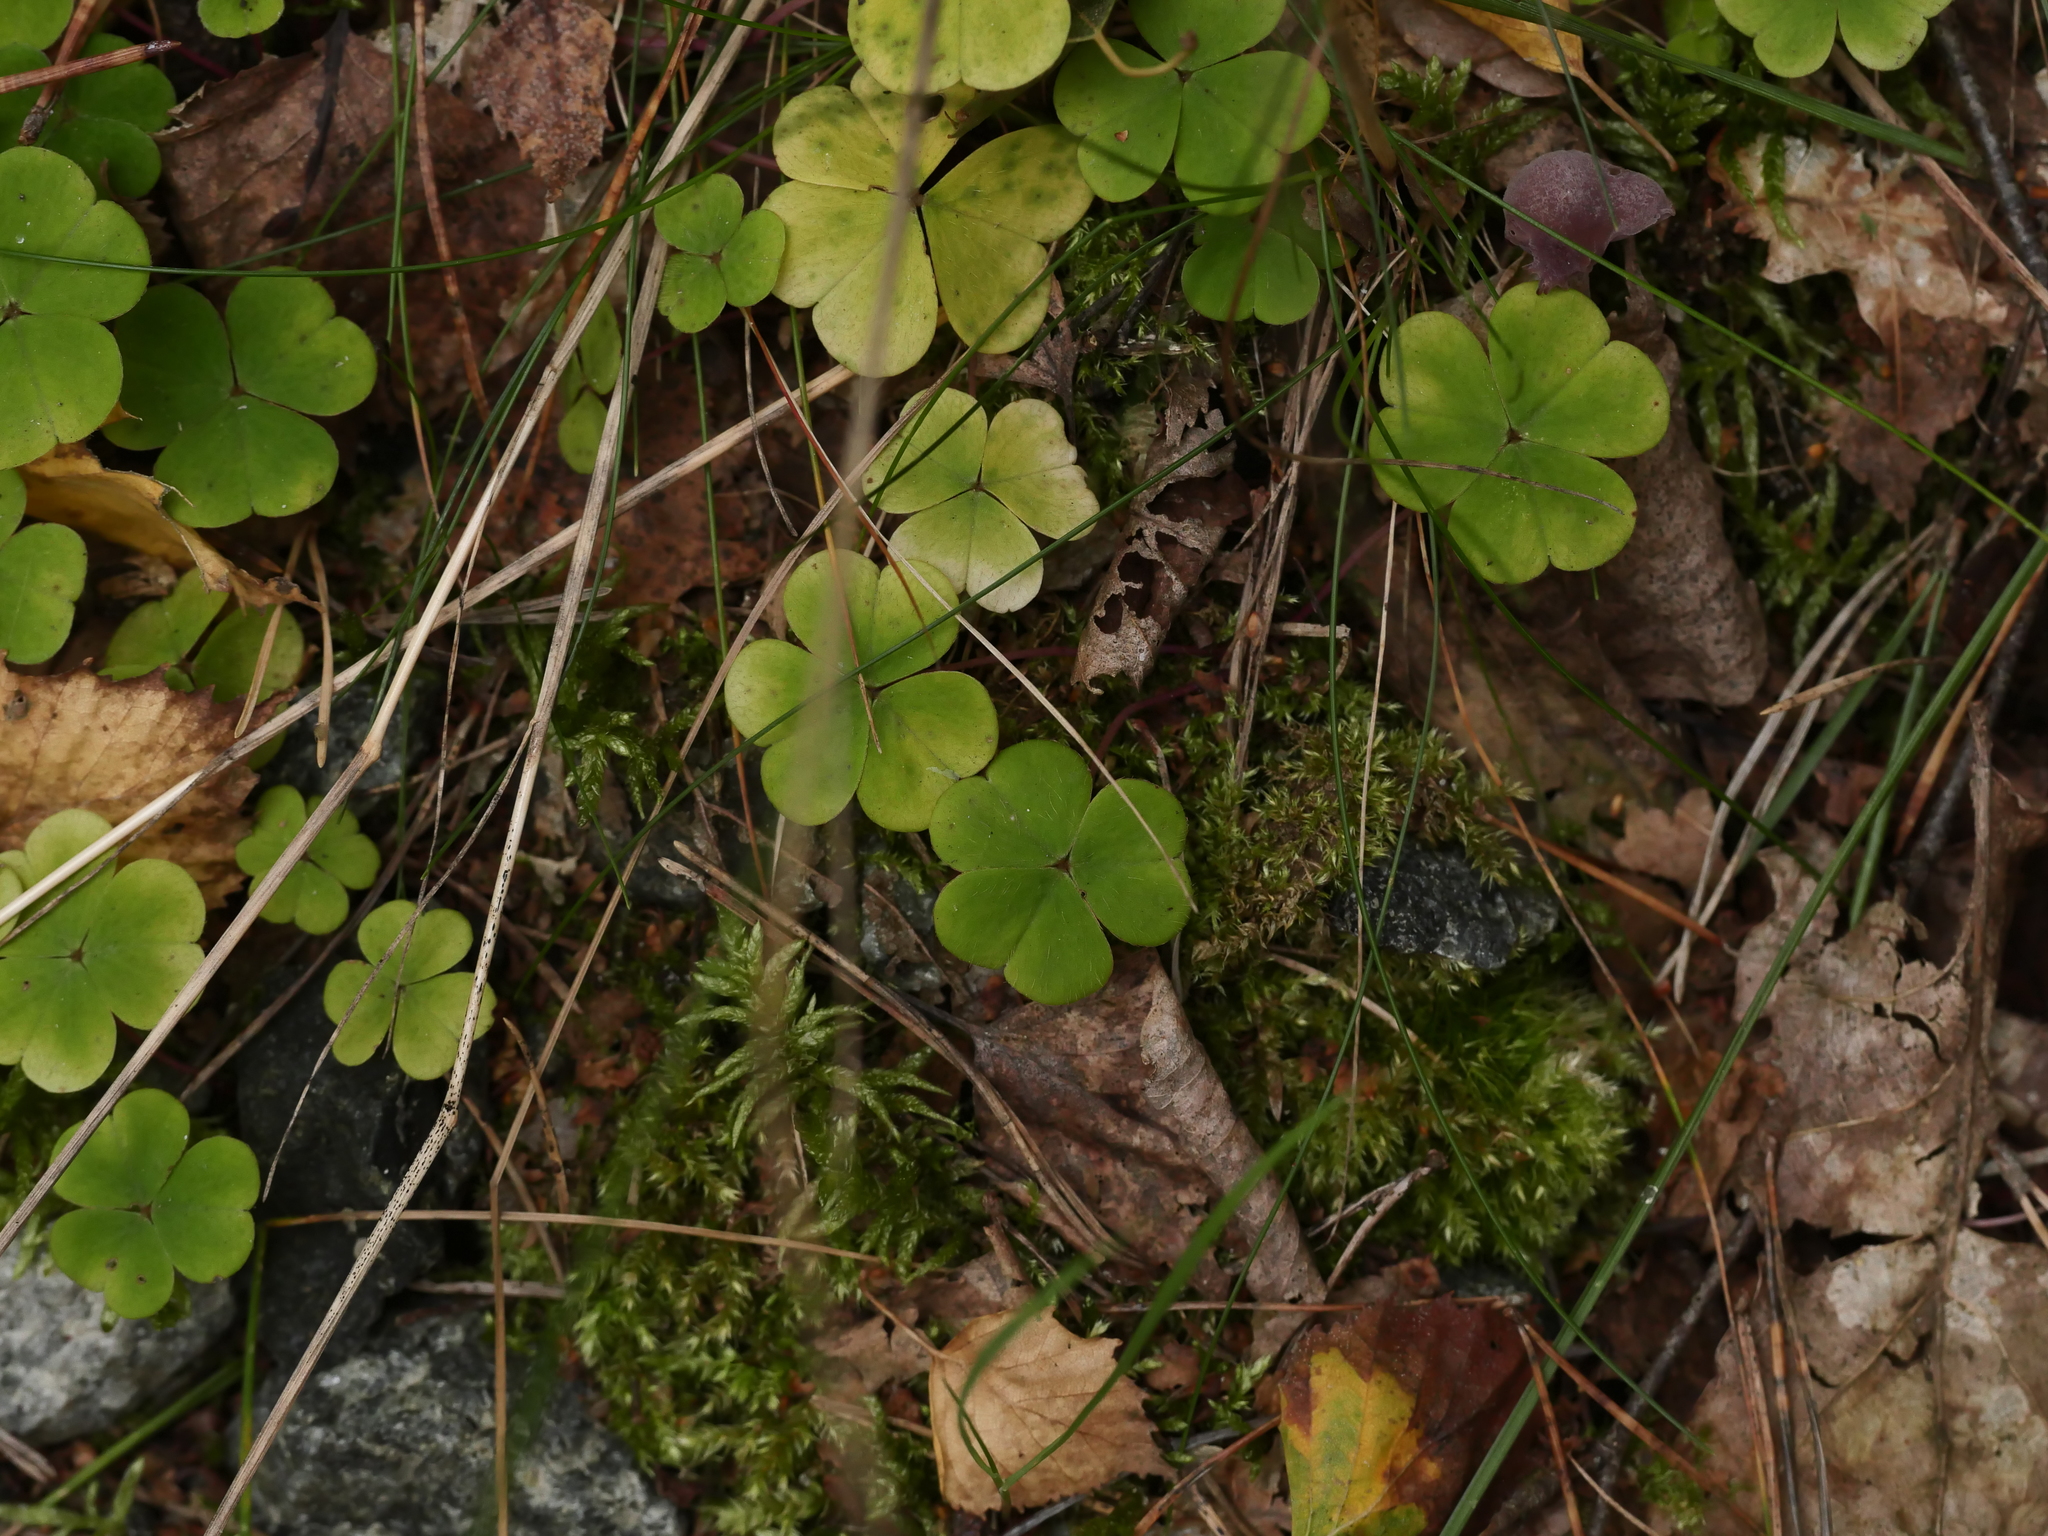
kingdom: Plantae
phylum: Tracheophyta
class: Magnoliopsida
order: Oxalidales
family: Oxalidaceae
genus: Oxalis
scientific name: Oxalis acetosella
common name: Wood-sorrel
